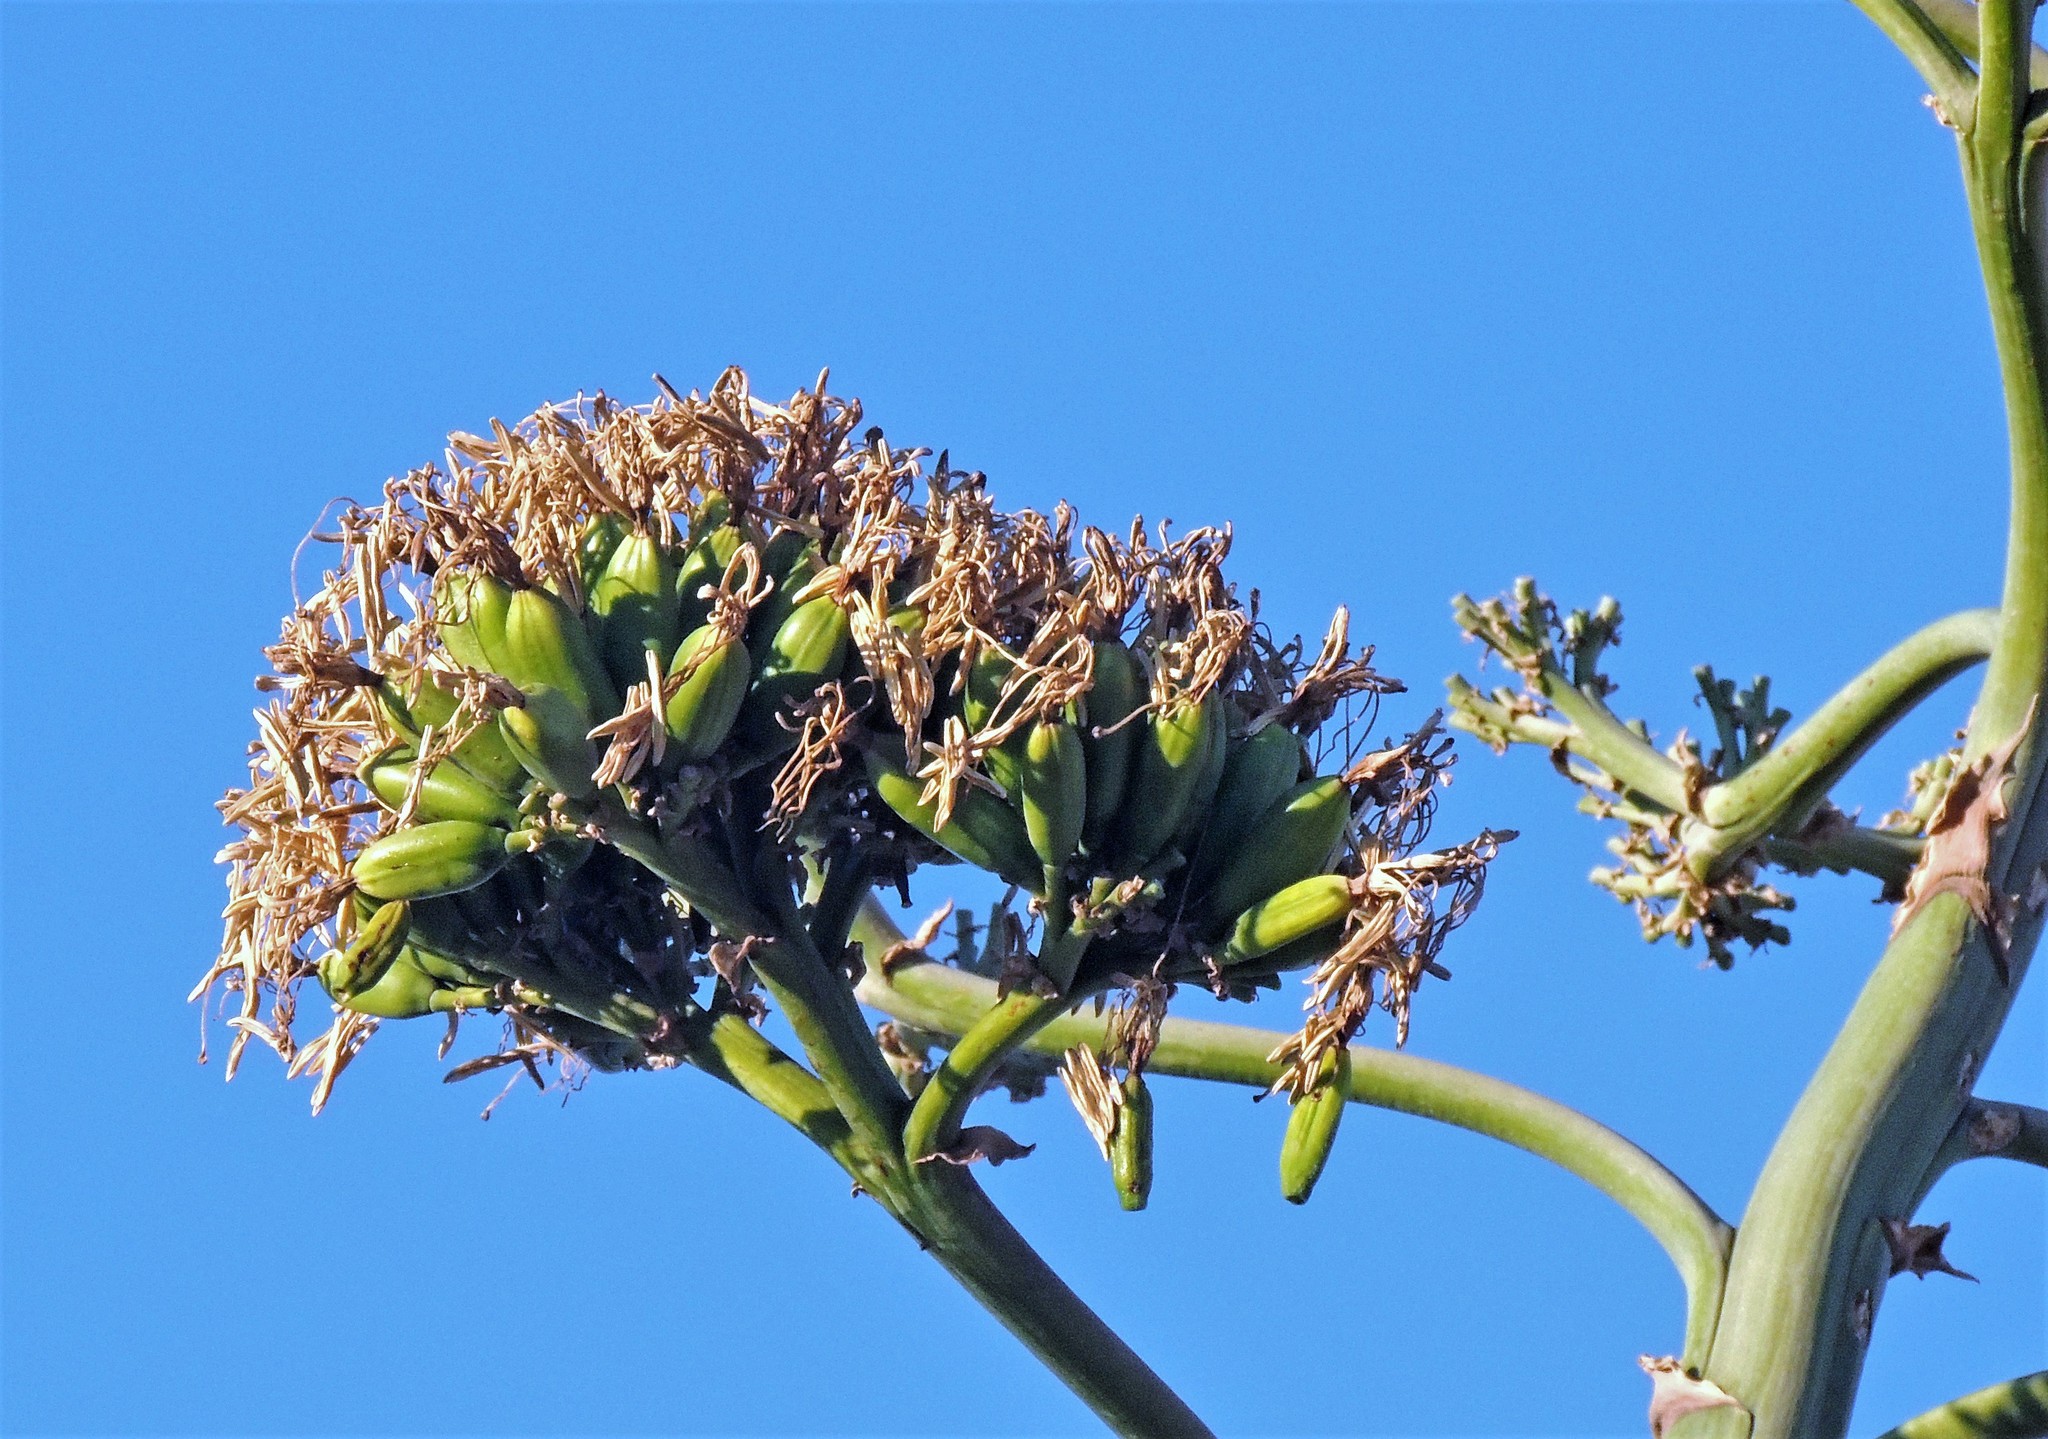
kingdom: Plantae
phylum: Tracheophyta
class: Liliopsida
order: Asparagales
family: Asparagaceae
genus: Agave
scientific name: Agave americana
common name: Centuryplant
